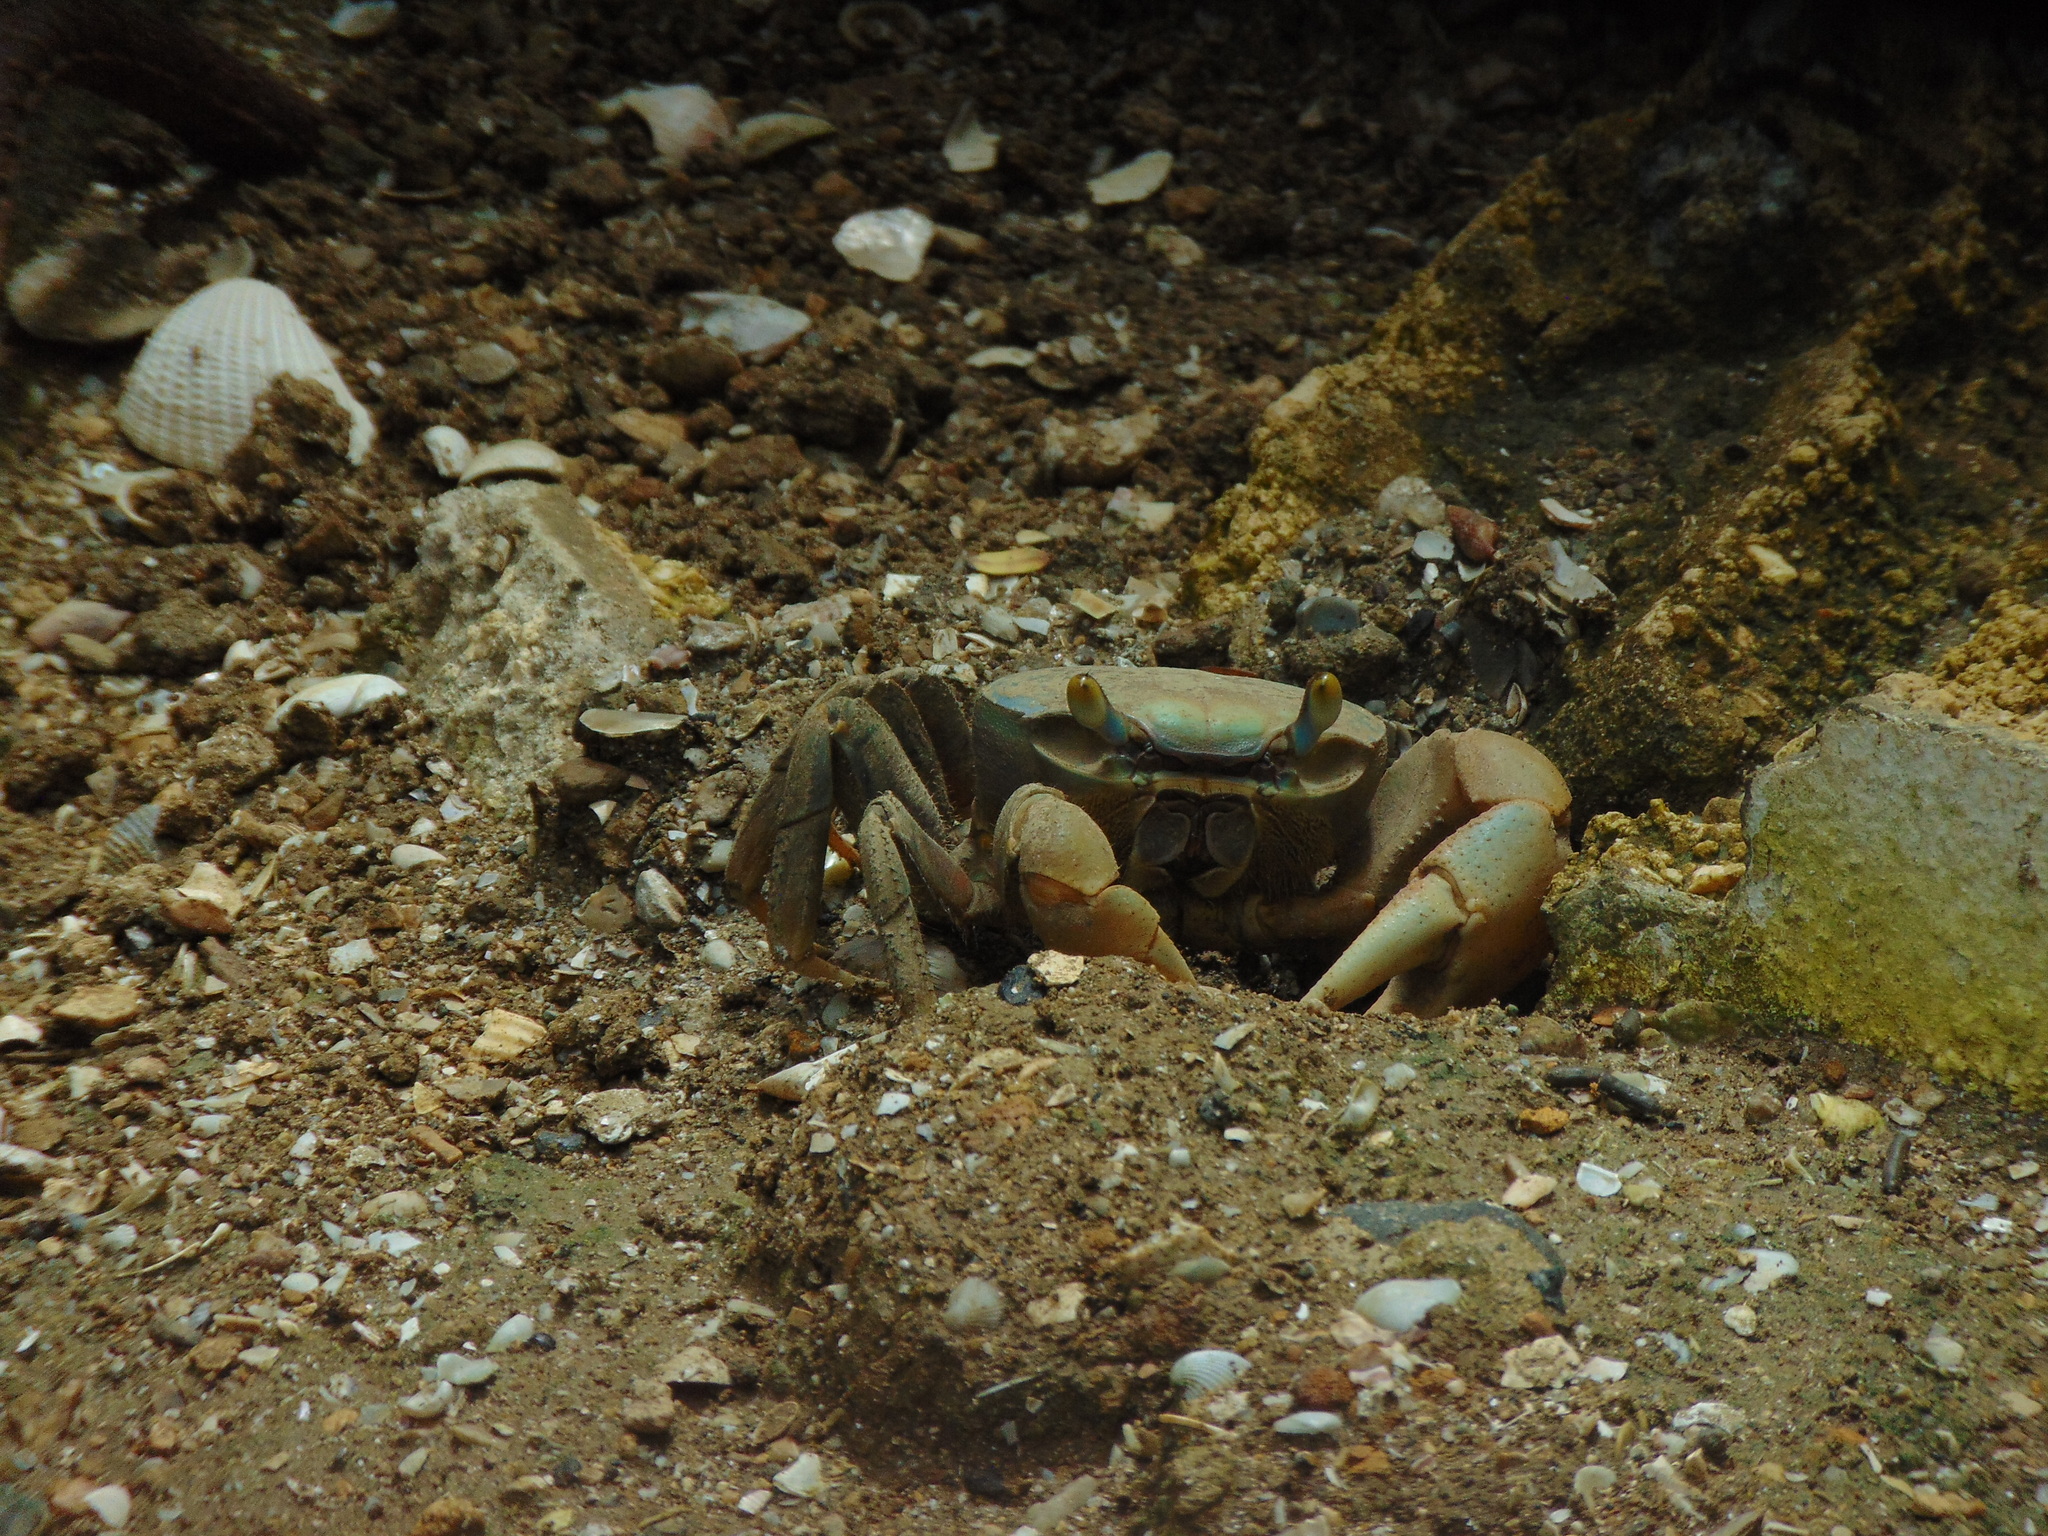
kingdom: Animalia
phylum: Arthropoda
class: Malacostraca
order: Decapoda
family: Gecarcinidae
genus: Cardisoma
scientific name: Cardisoma guanhumi
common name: Great land crab
